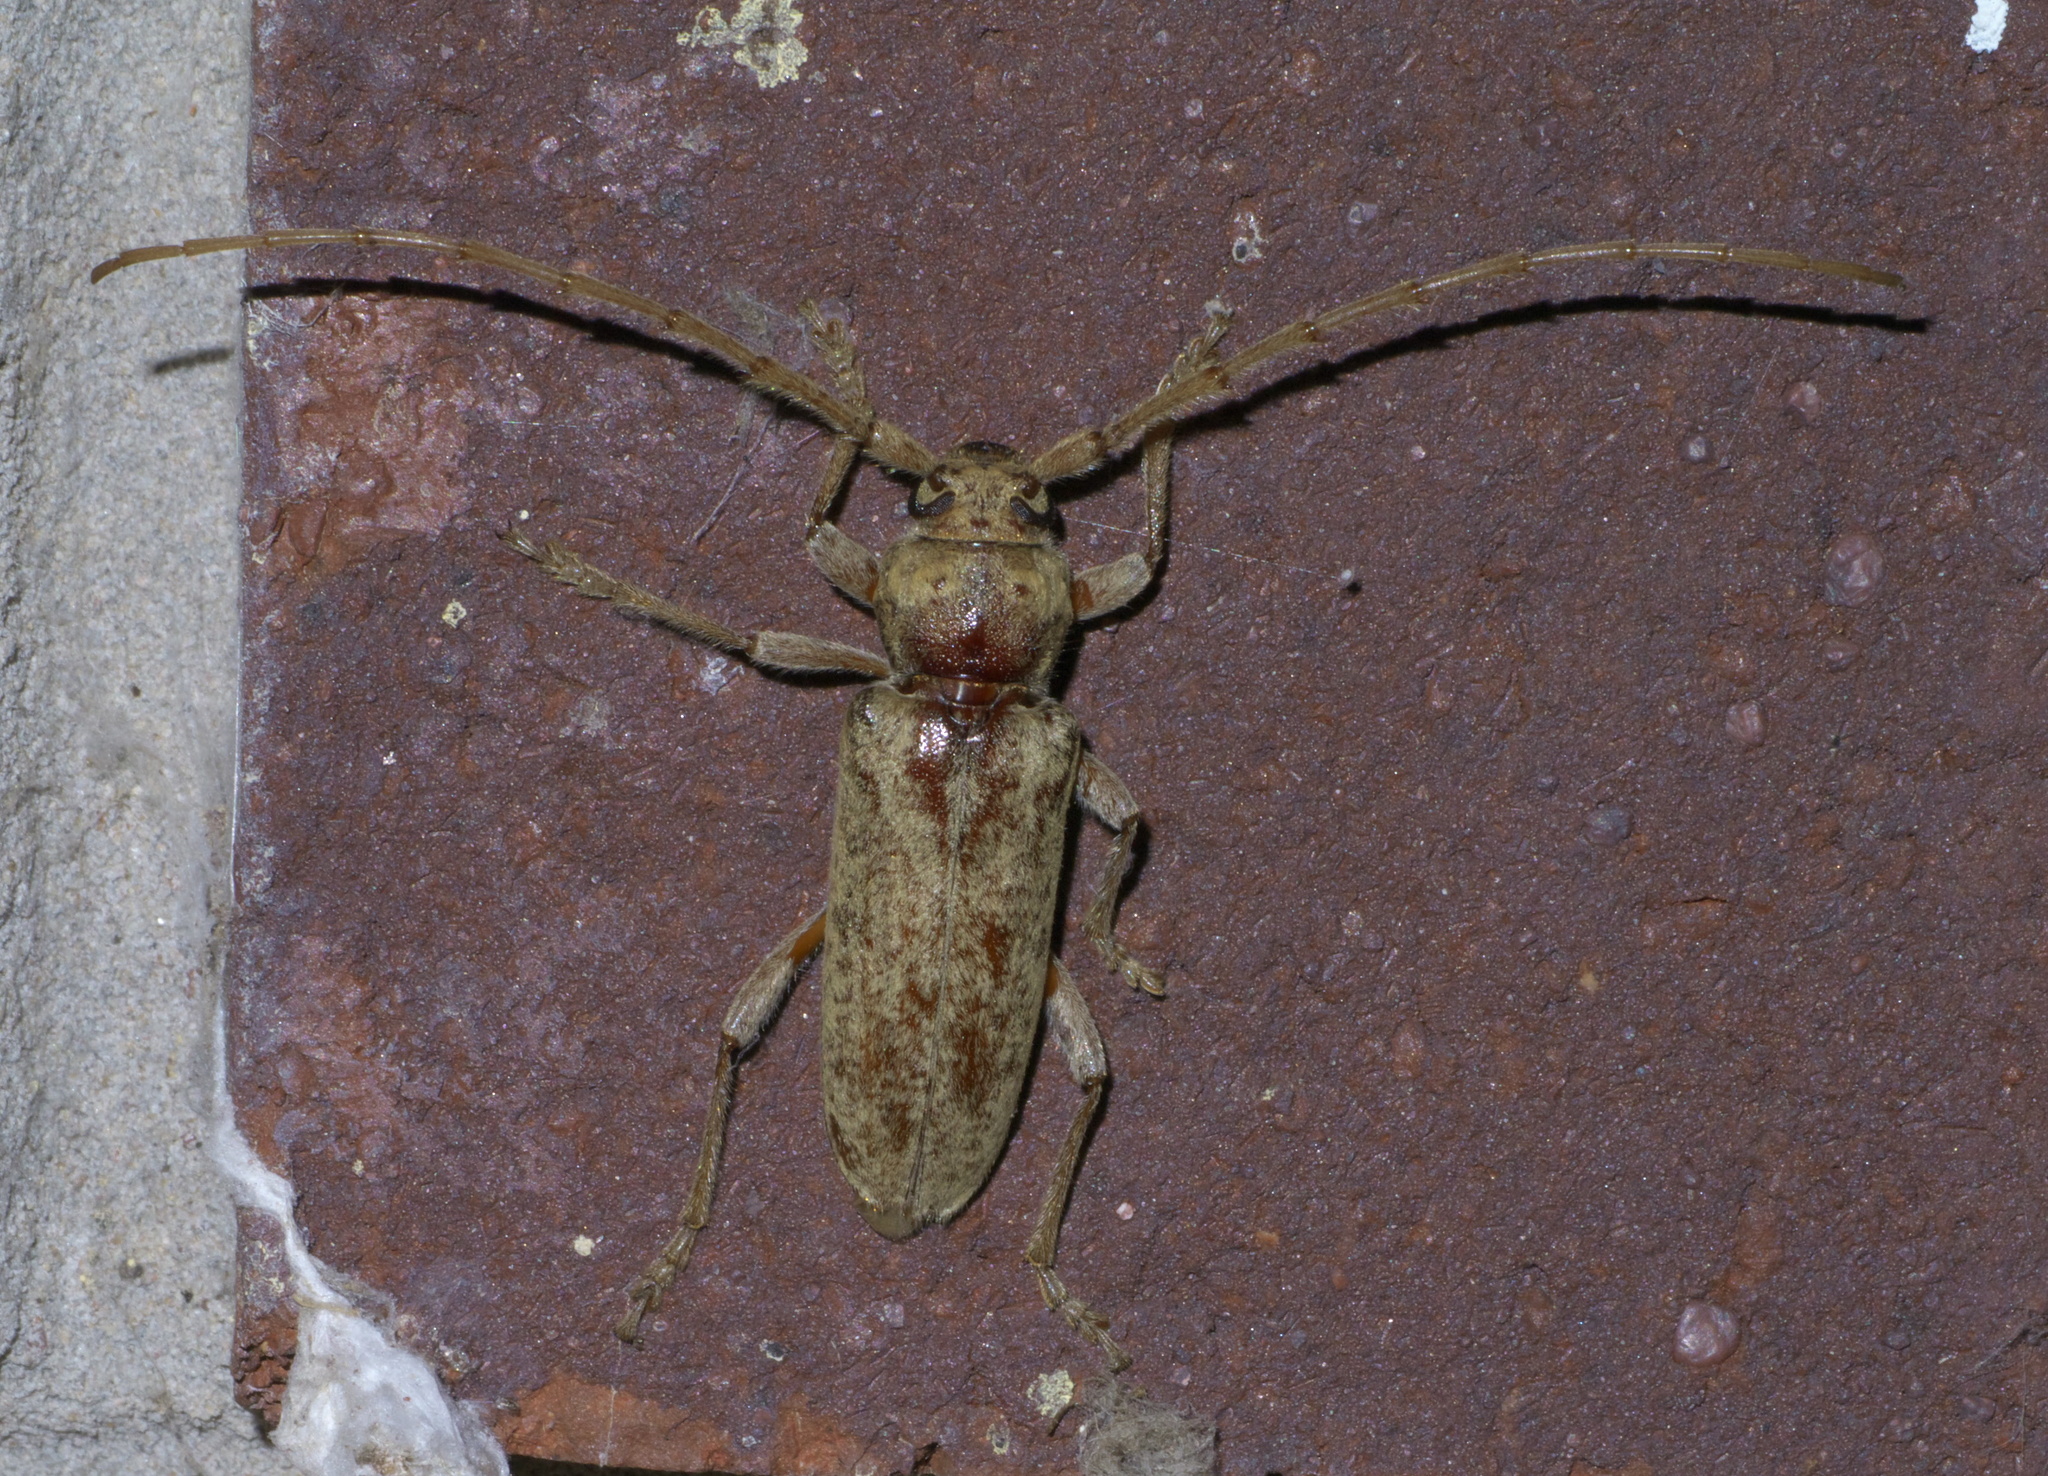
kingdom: Animalia
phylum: Arthropoda
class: Insecta
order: Coleoptera
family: Cerambycidae
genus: Enaphalodes
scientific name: Enaphalodes rufulus
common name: Red oak borer
